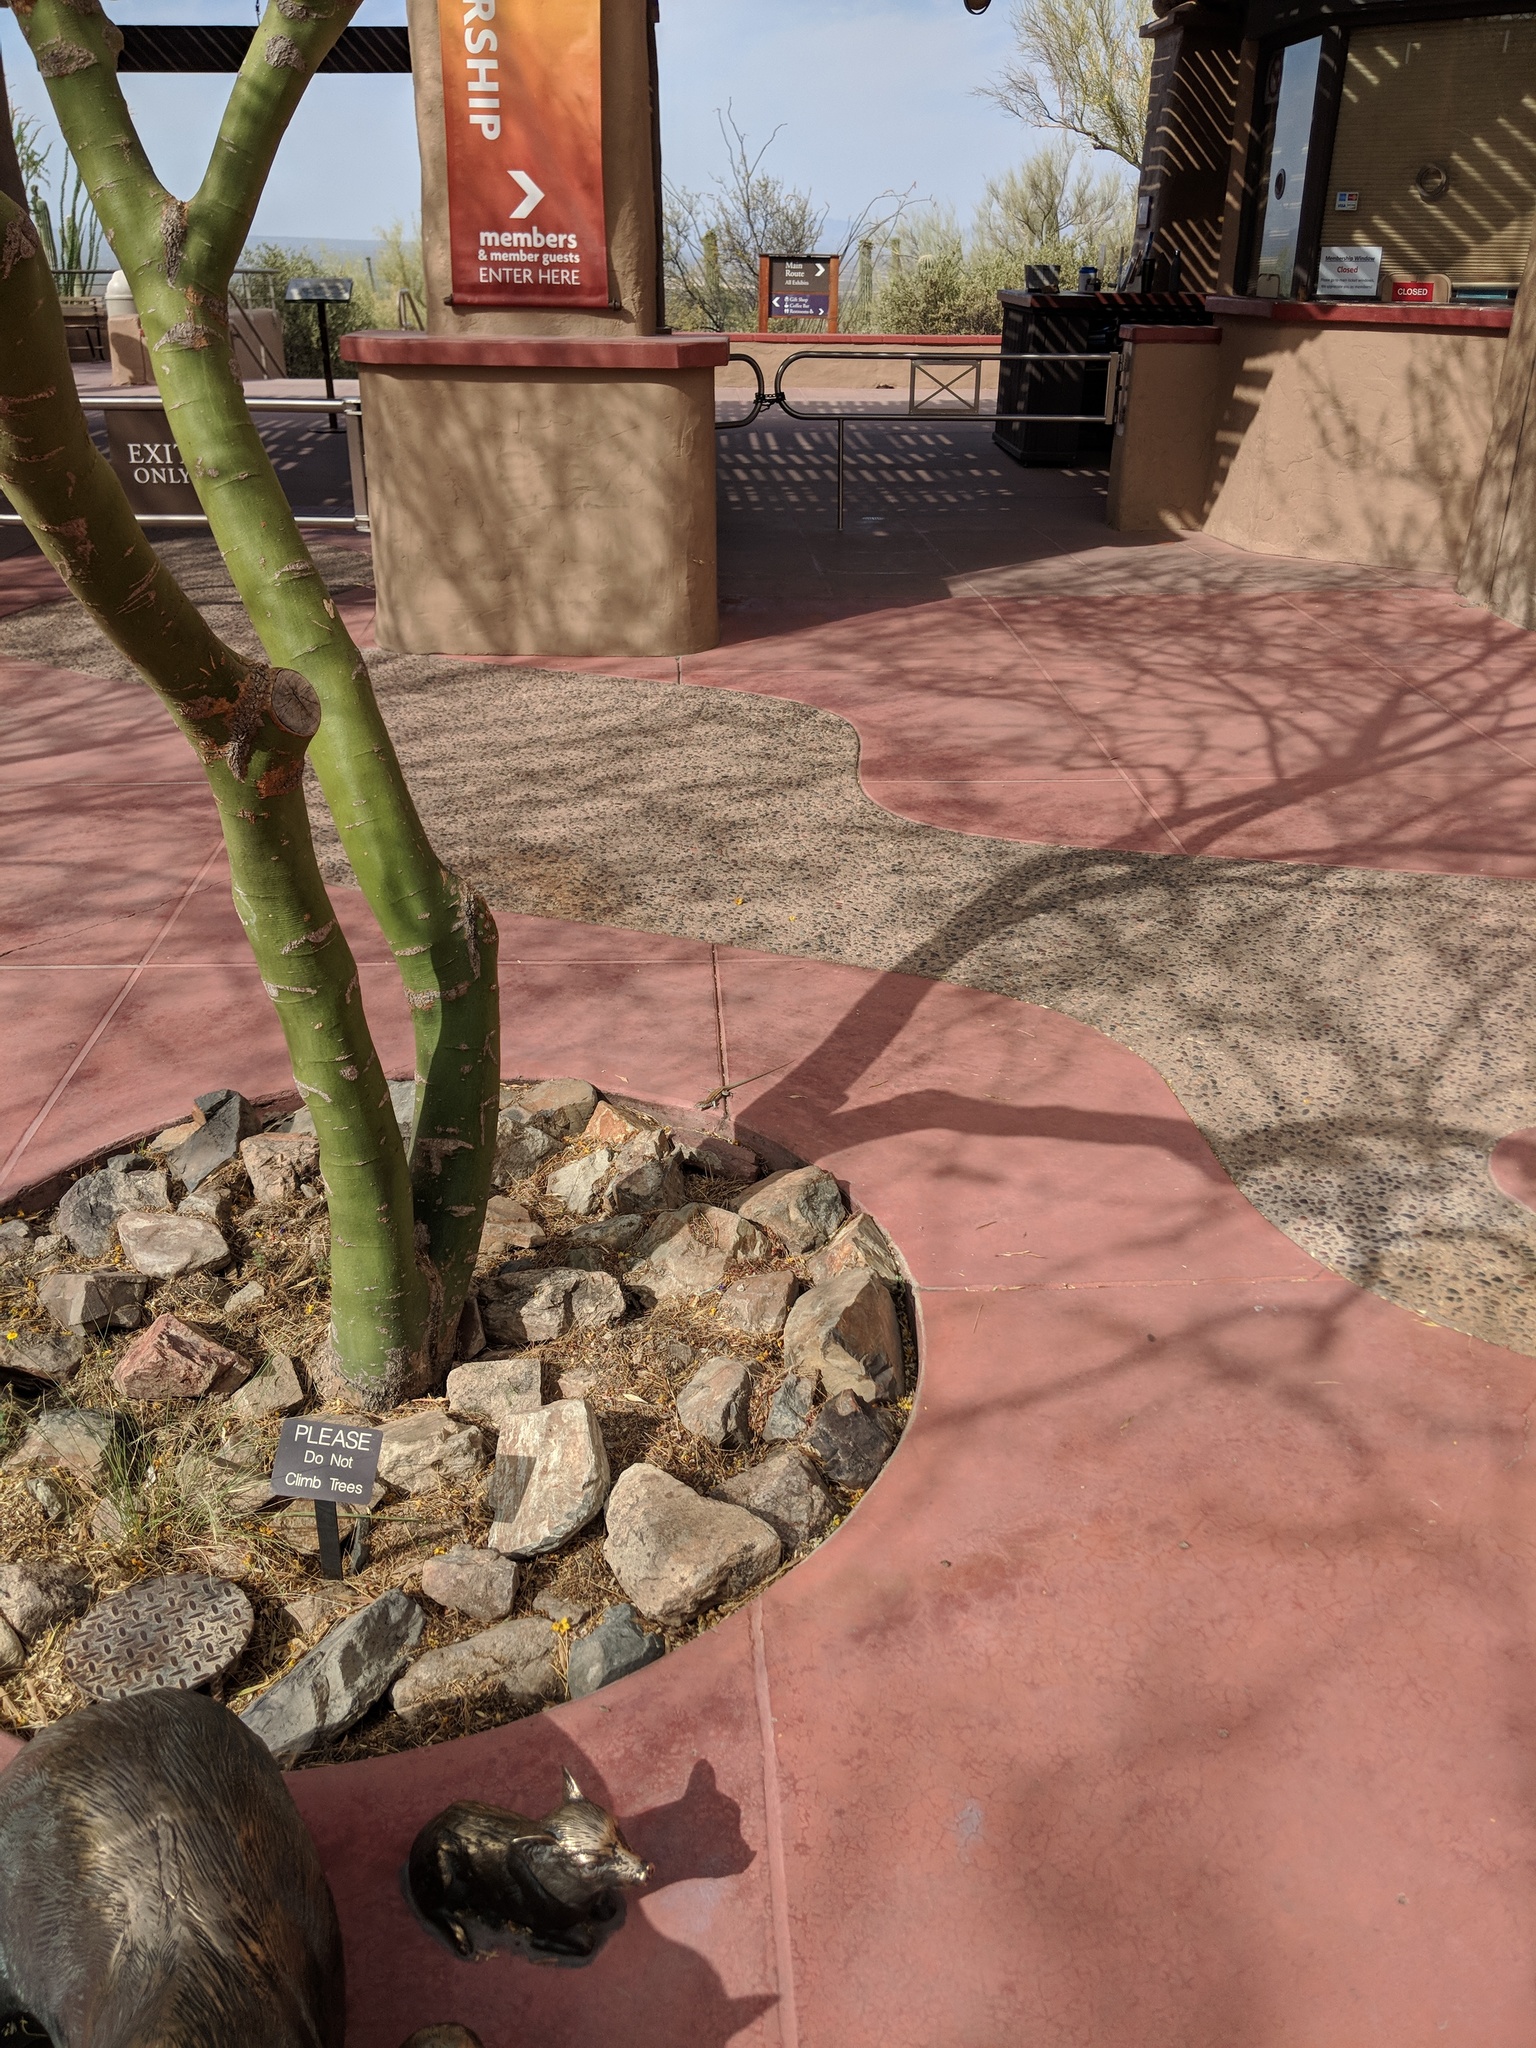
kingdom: Animalia
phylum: Chordata
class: Squamata
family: Teiidae
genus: Aspidoscelis
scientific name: Aspidoscelis sonorae
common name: Sonoran spotted whiptail
